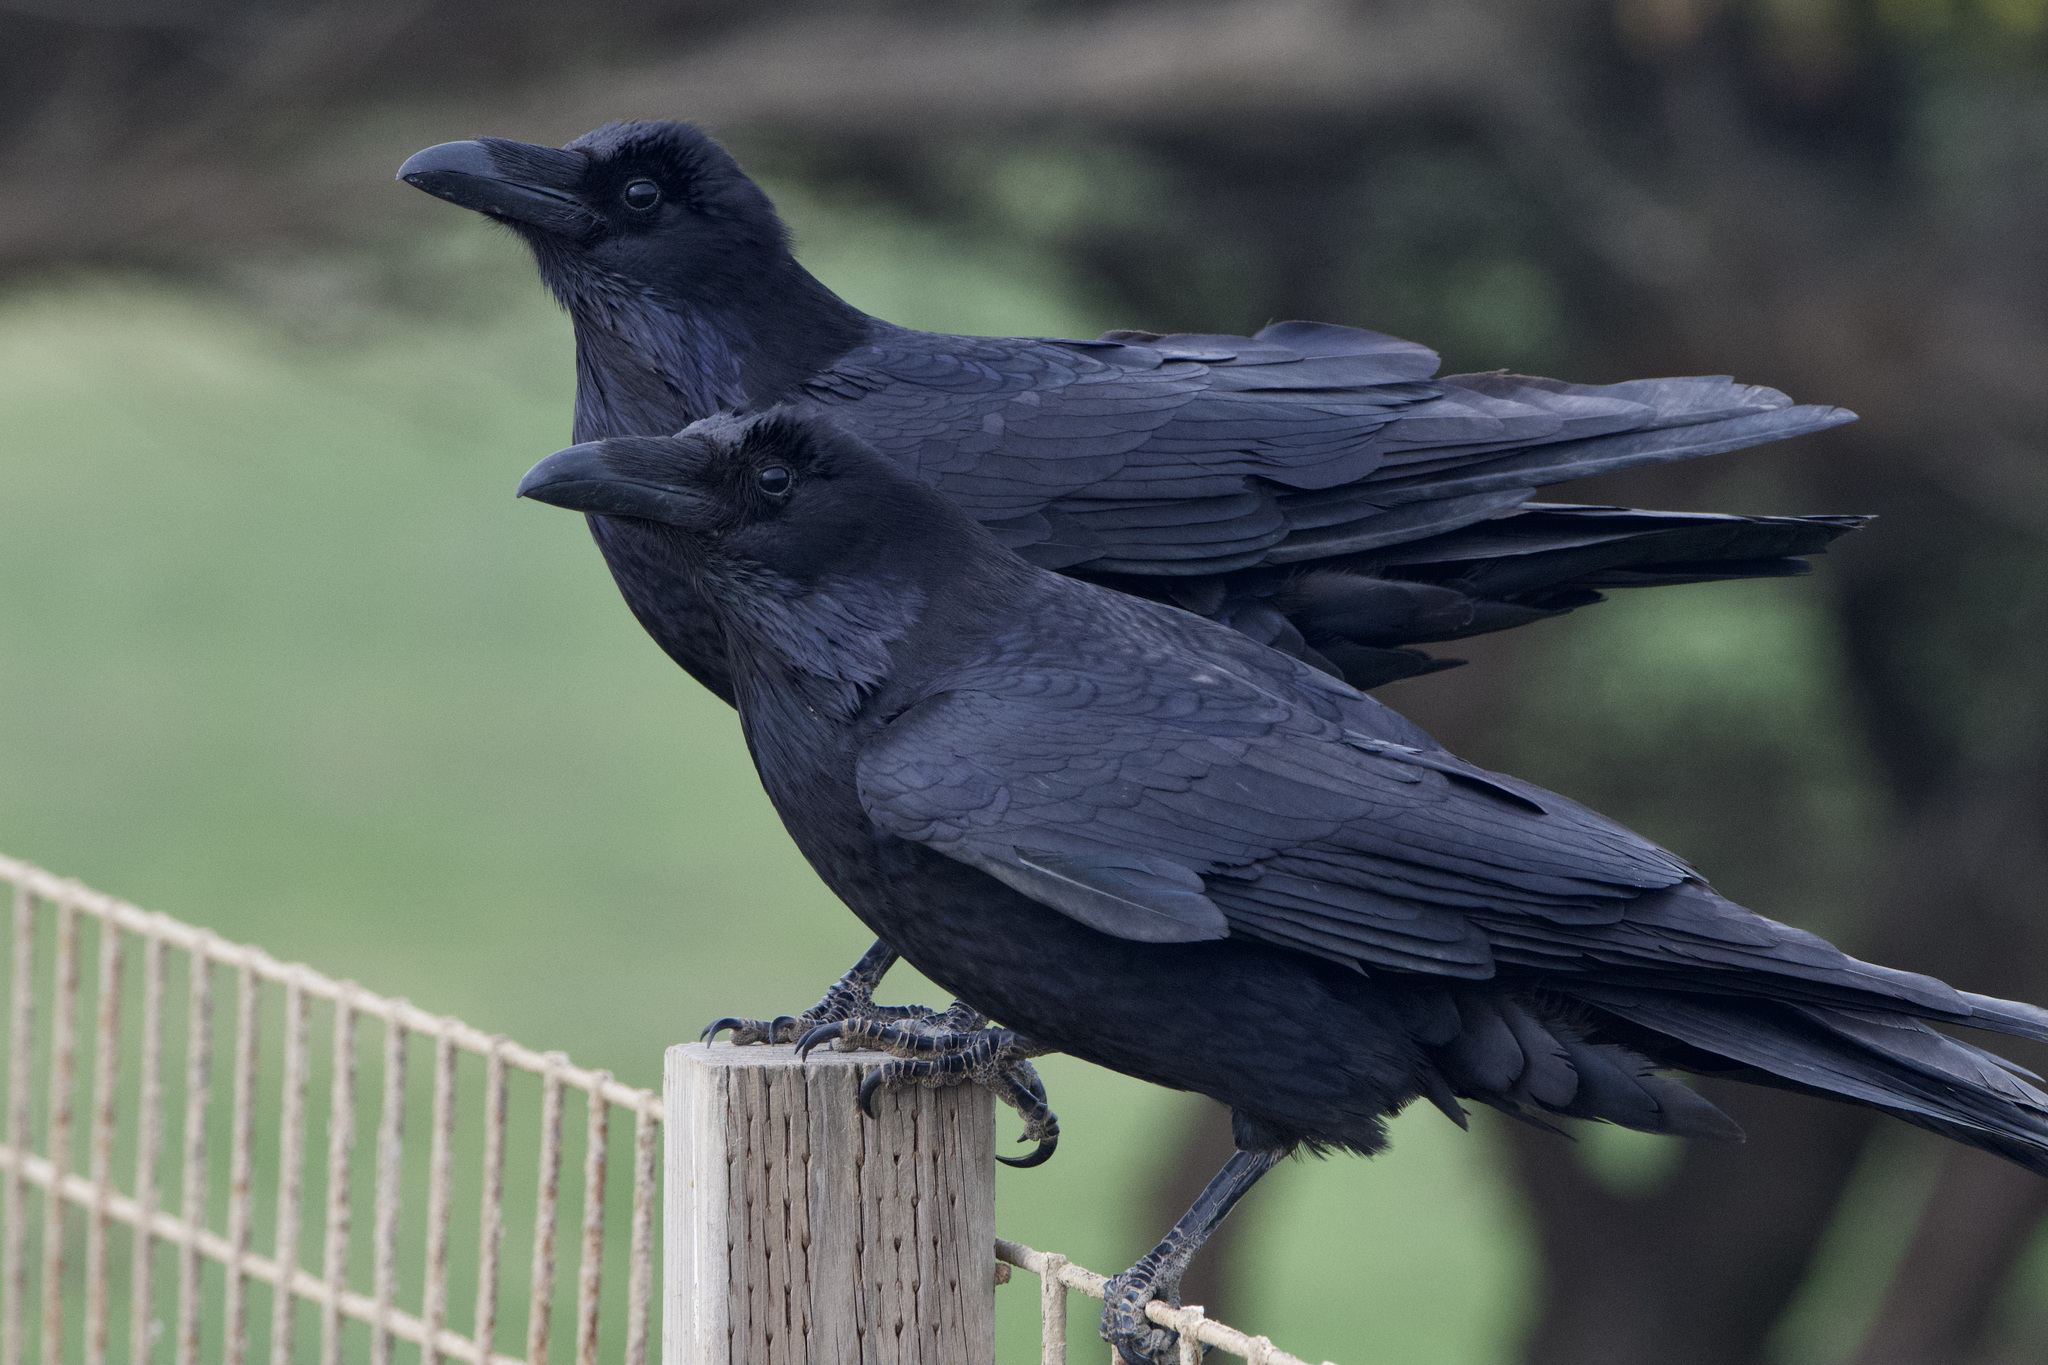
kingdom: Animalia
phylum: Chordata
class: Aves
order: Passeriformes
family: Corvidae
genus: Corvus
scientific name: Corvus corax
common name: Common raven
